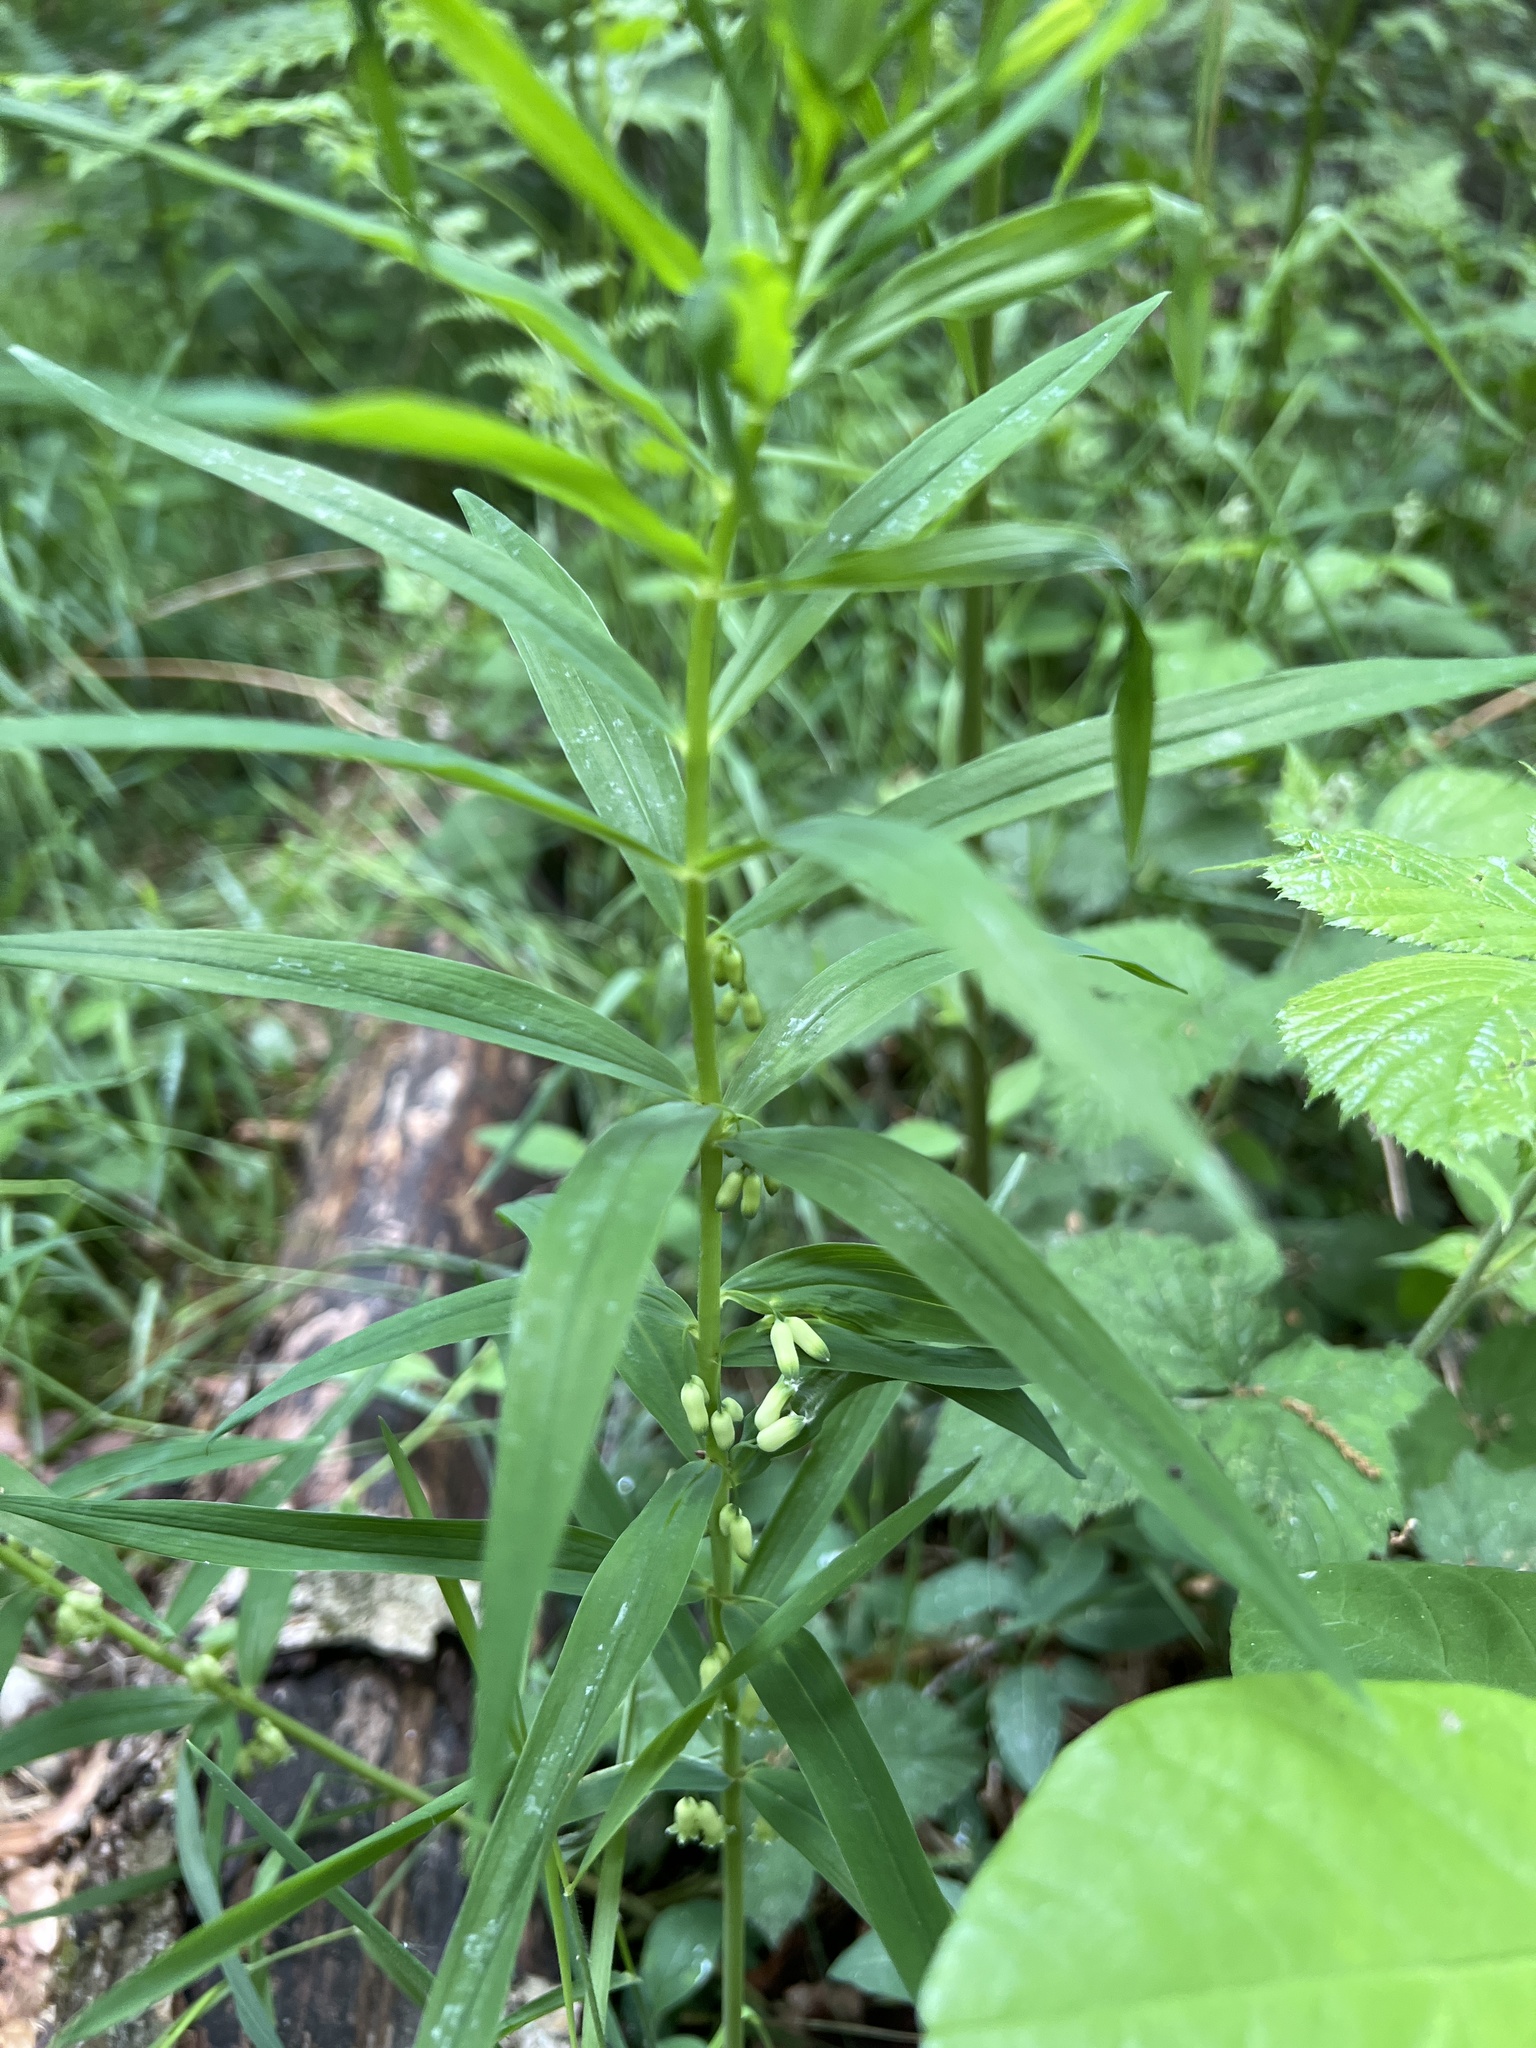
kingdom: Plantae
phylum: Tracheophyta
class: Liliopsida
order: Asparagales
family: Asparagaceae
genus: Polygonatum
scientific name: Polygonatum verticillatum
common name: Whorled solomon's-seal
